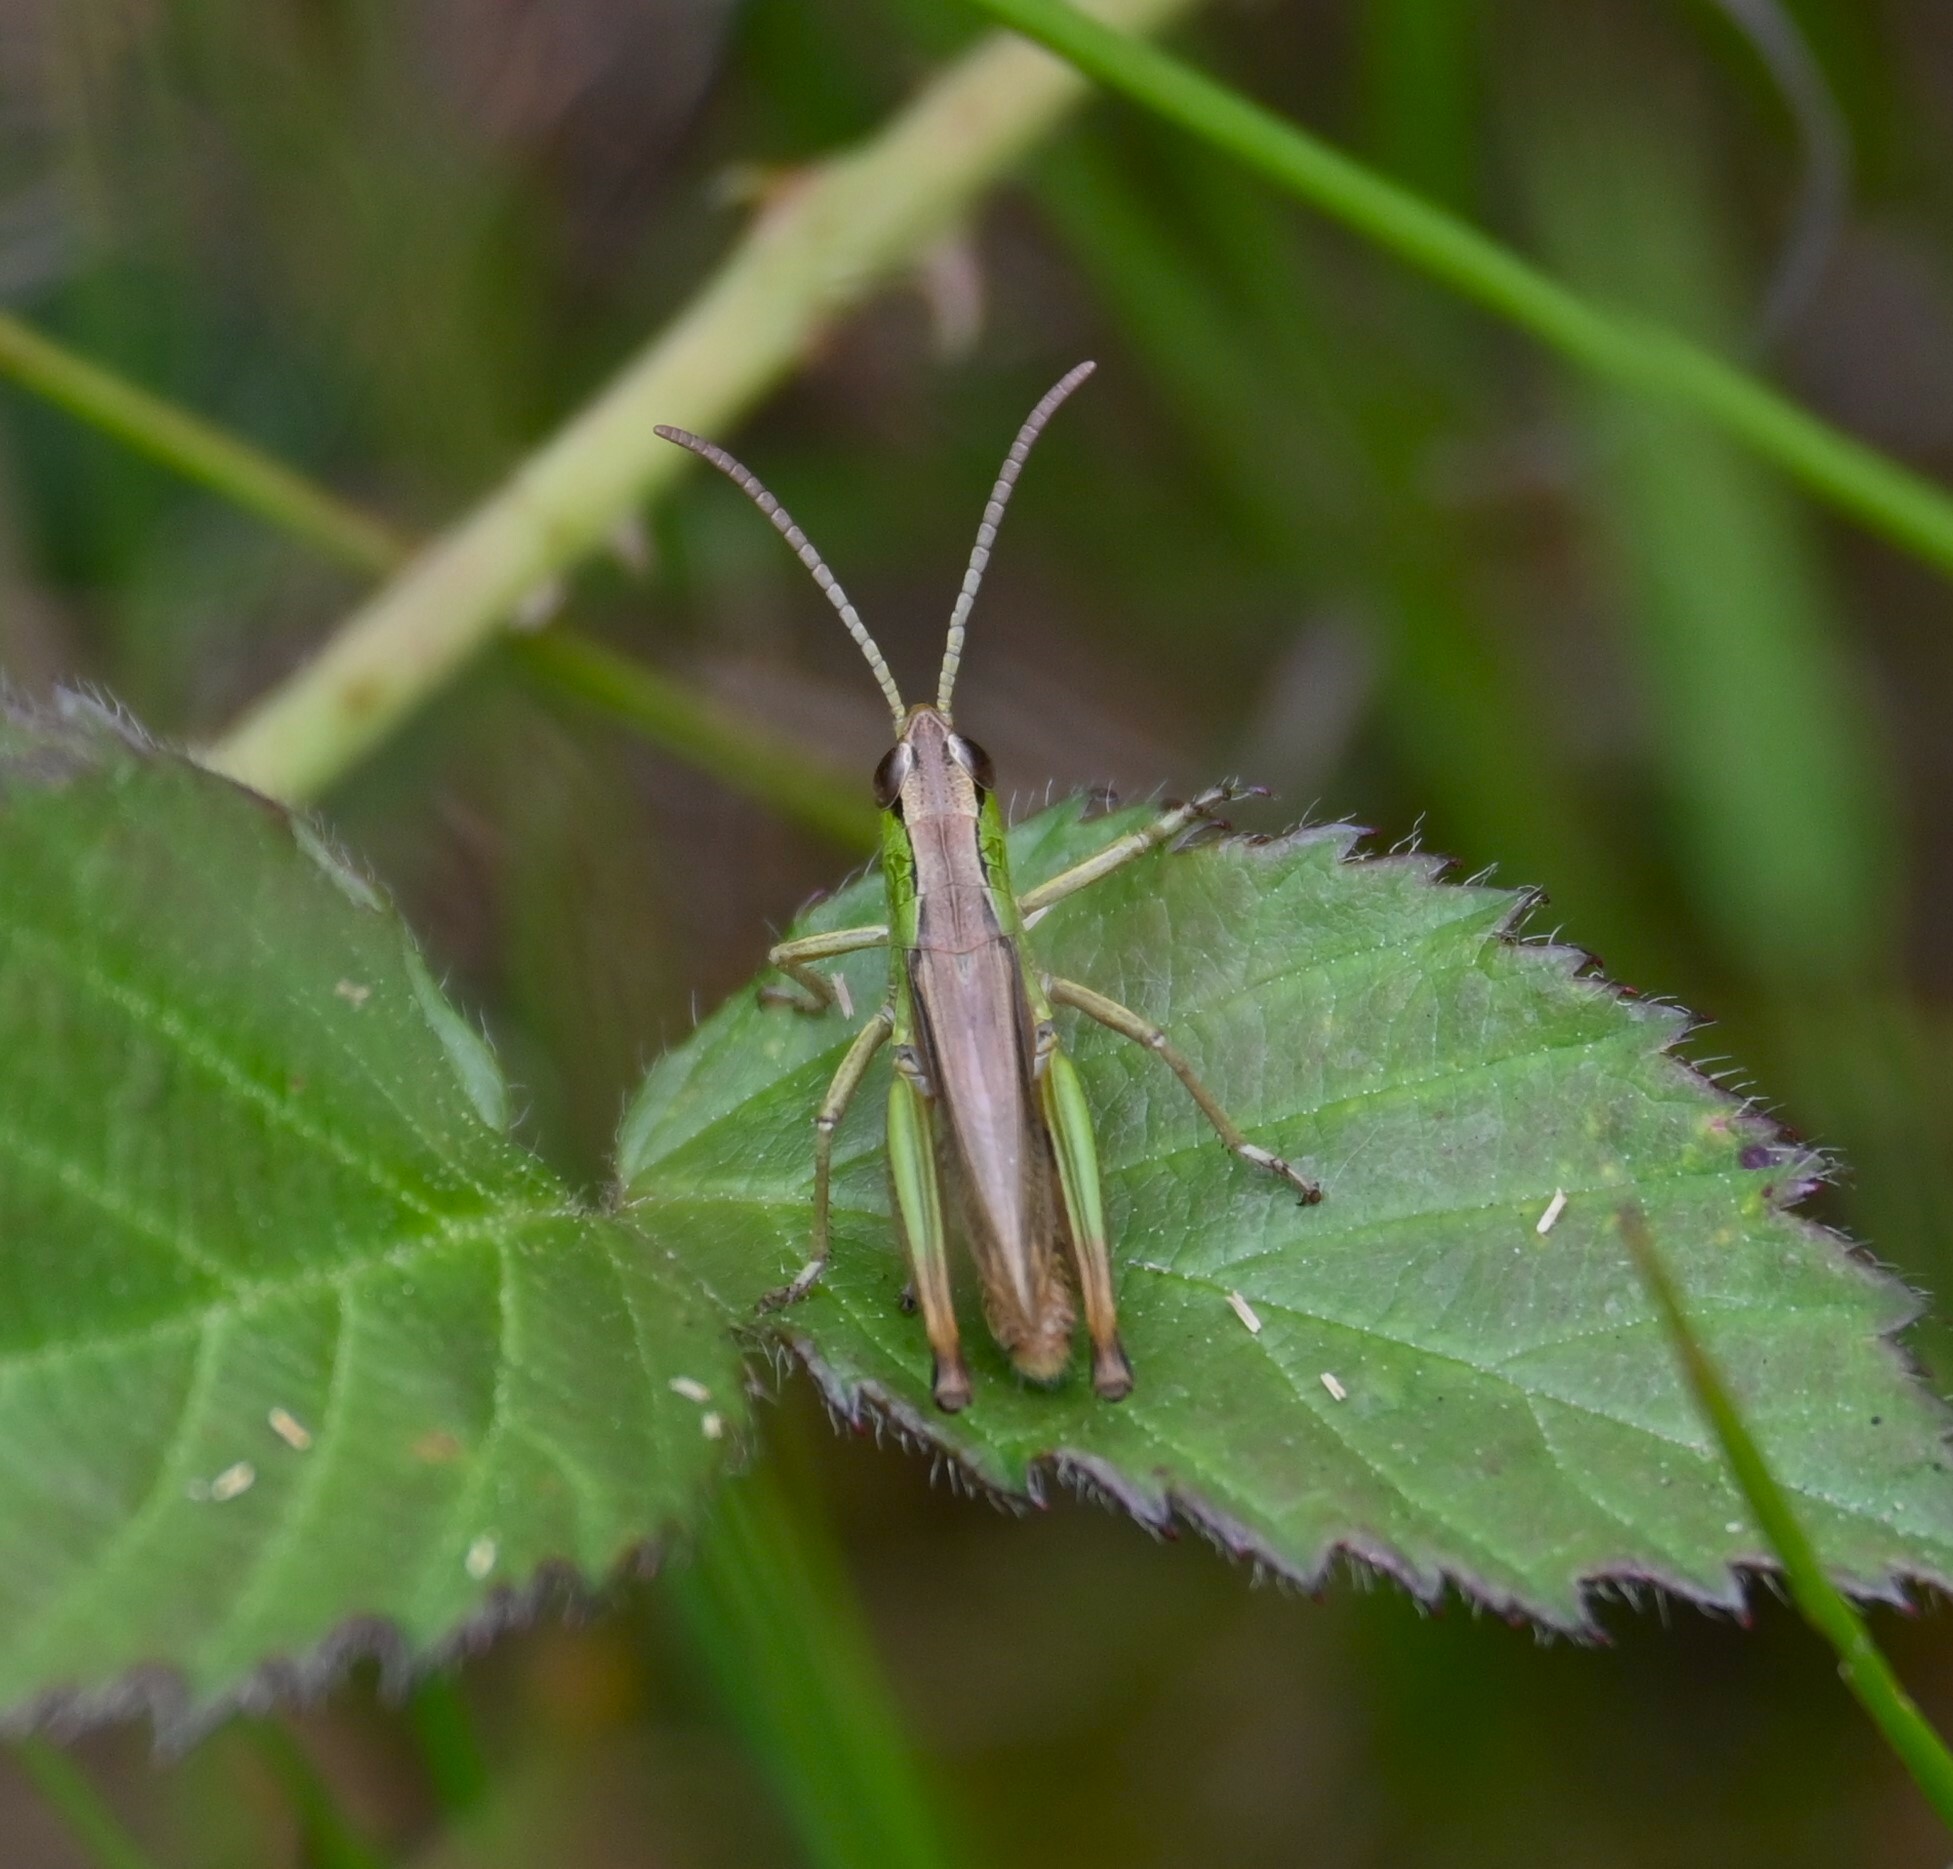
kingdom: Animalia
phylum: Arthropoda
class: Insecta
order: Orthoptera
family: Acrididae
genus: Pseudochorthippus
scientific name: Pseudochorthippus parallelus
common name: Meadow grasshopper
